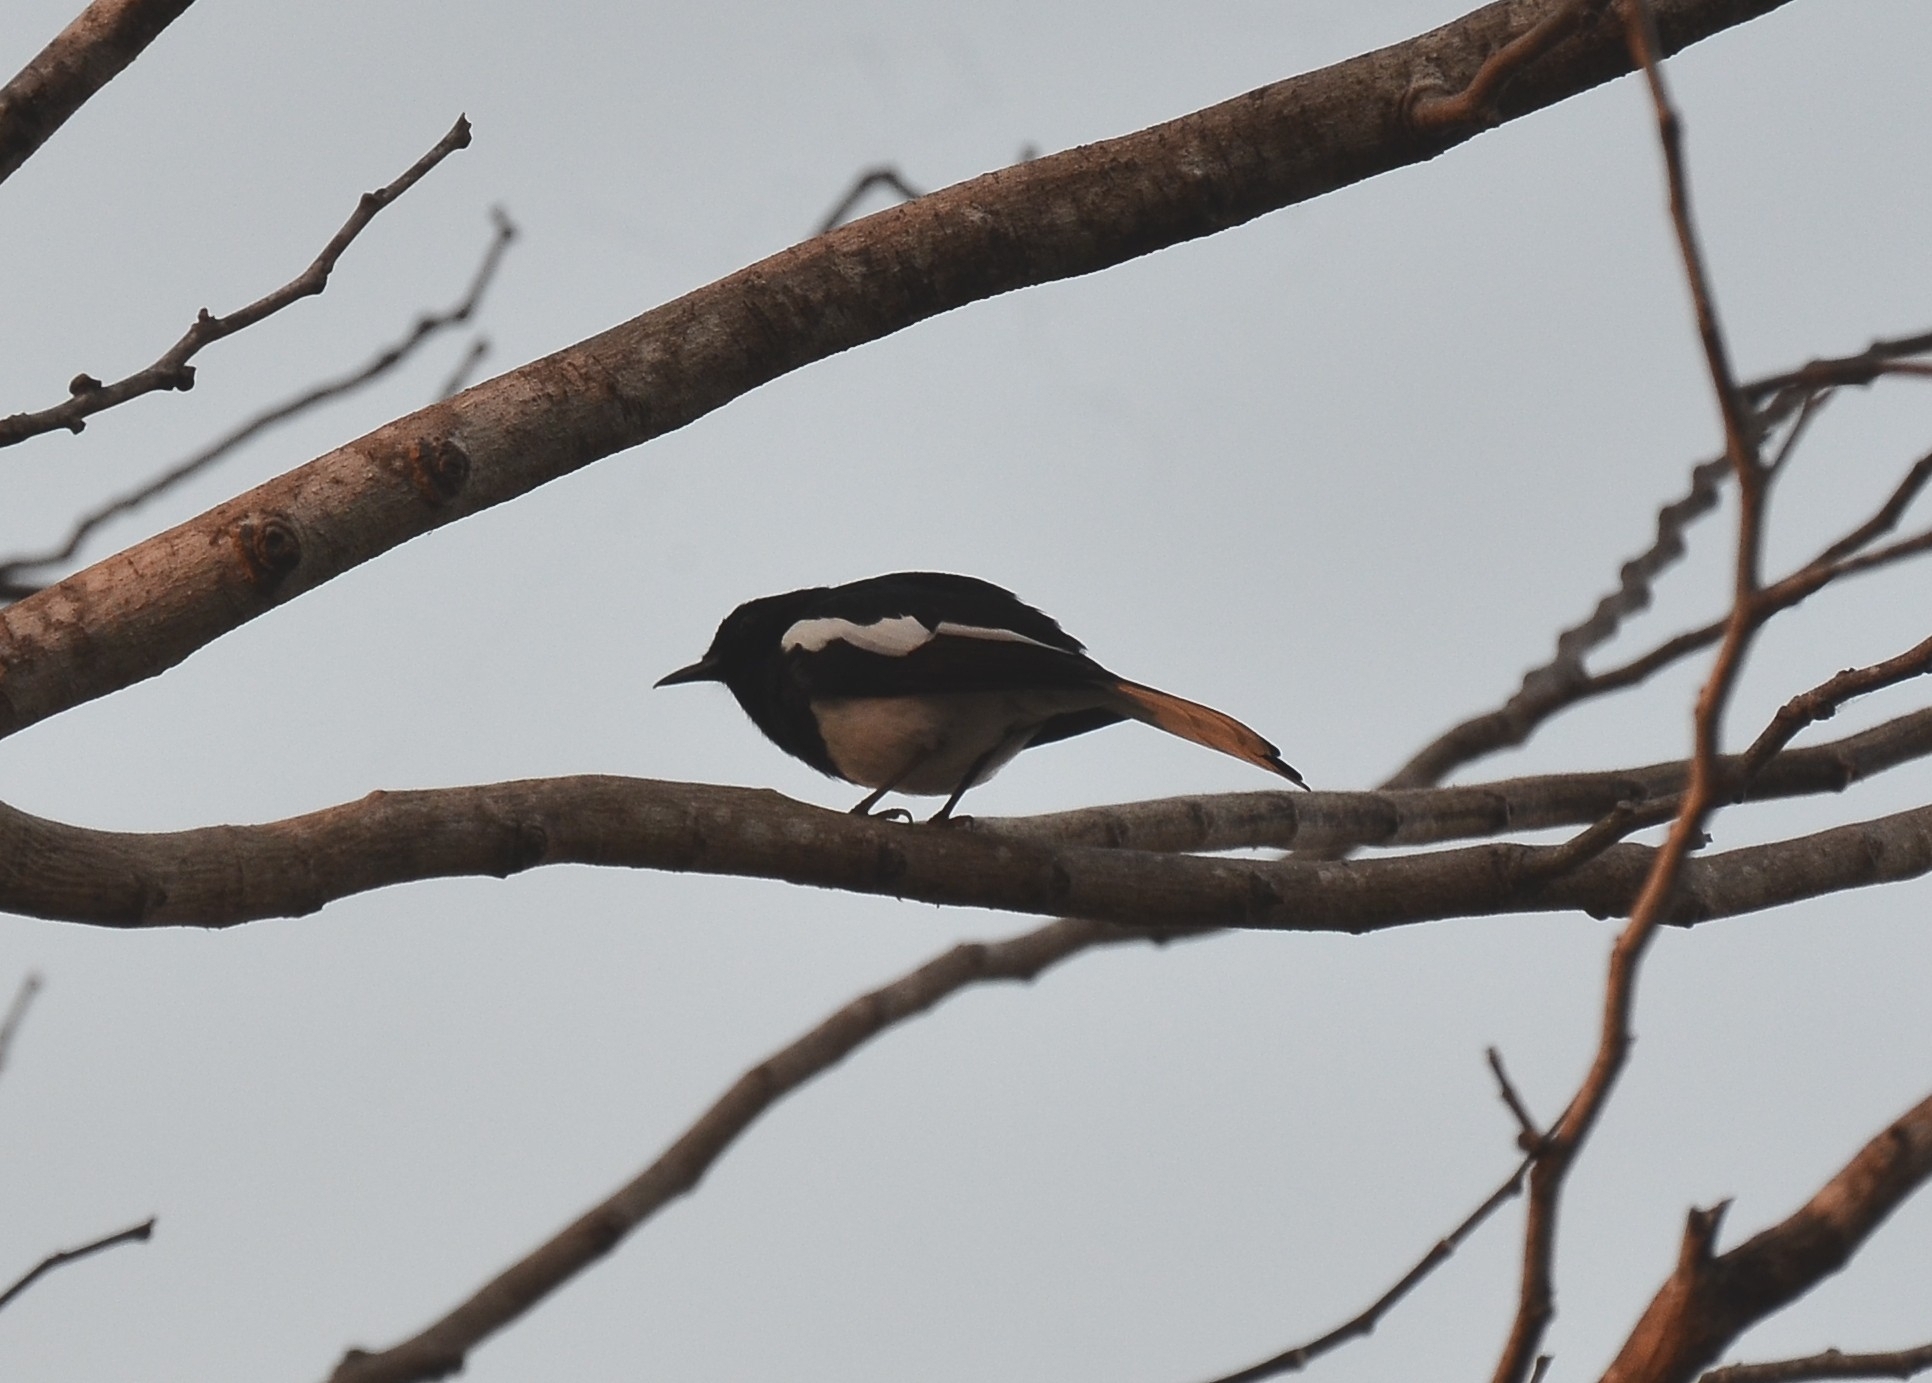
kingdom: Animalia
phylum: Chordata
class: Aves
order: Passeriformes
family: Muscicapidae
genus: Copsychus
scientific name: Copsychus saularis
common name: Oriental magpie-robin
